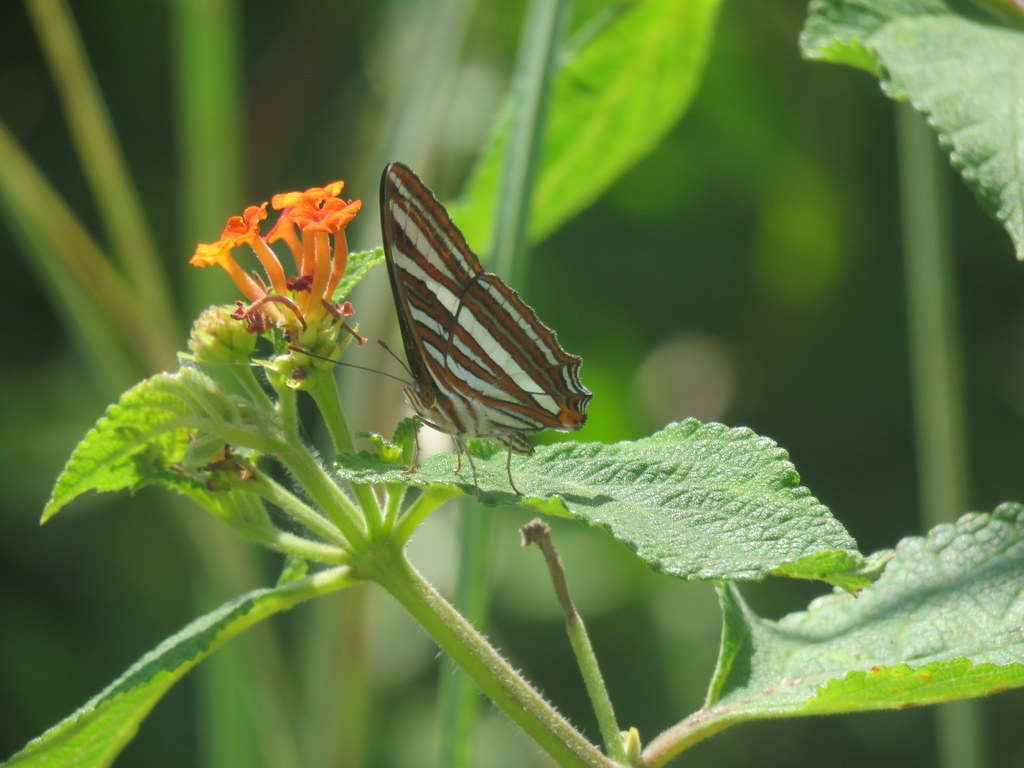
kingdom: Animalia
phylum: Arthropoda
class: Insecta
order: Lepidoptera
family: Nymphalidae
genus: Limenitis
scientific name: Limenitis syma
